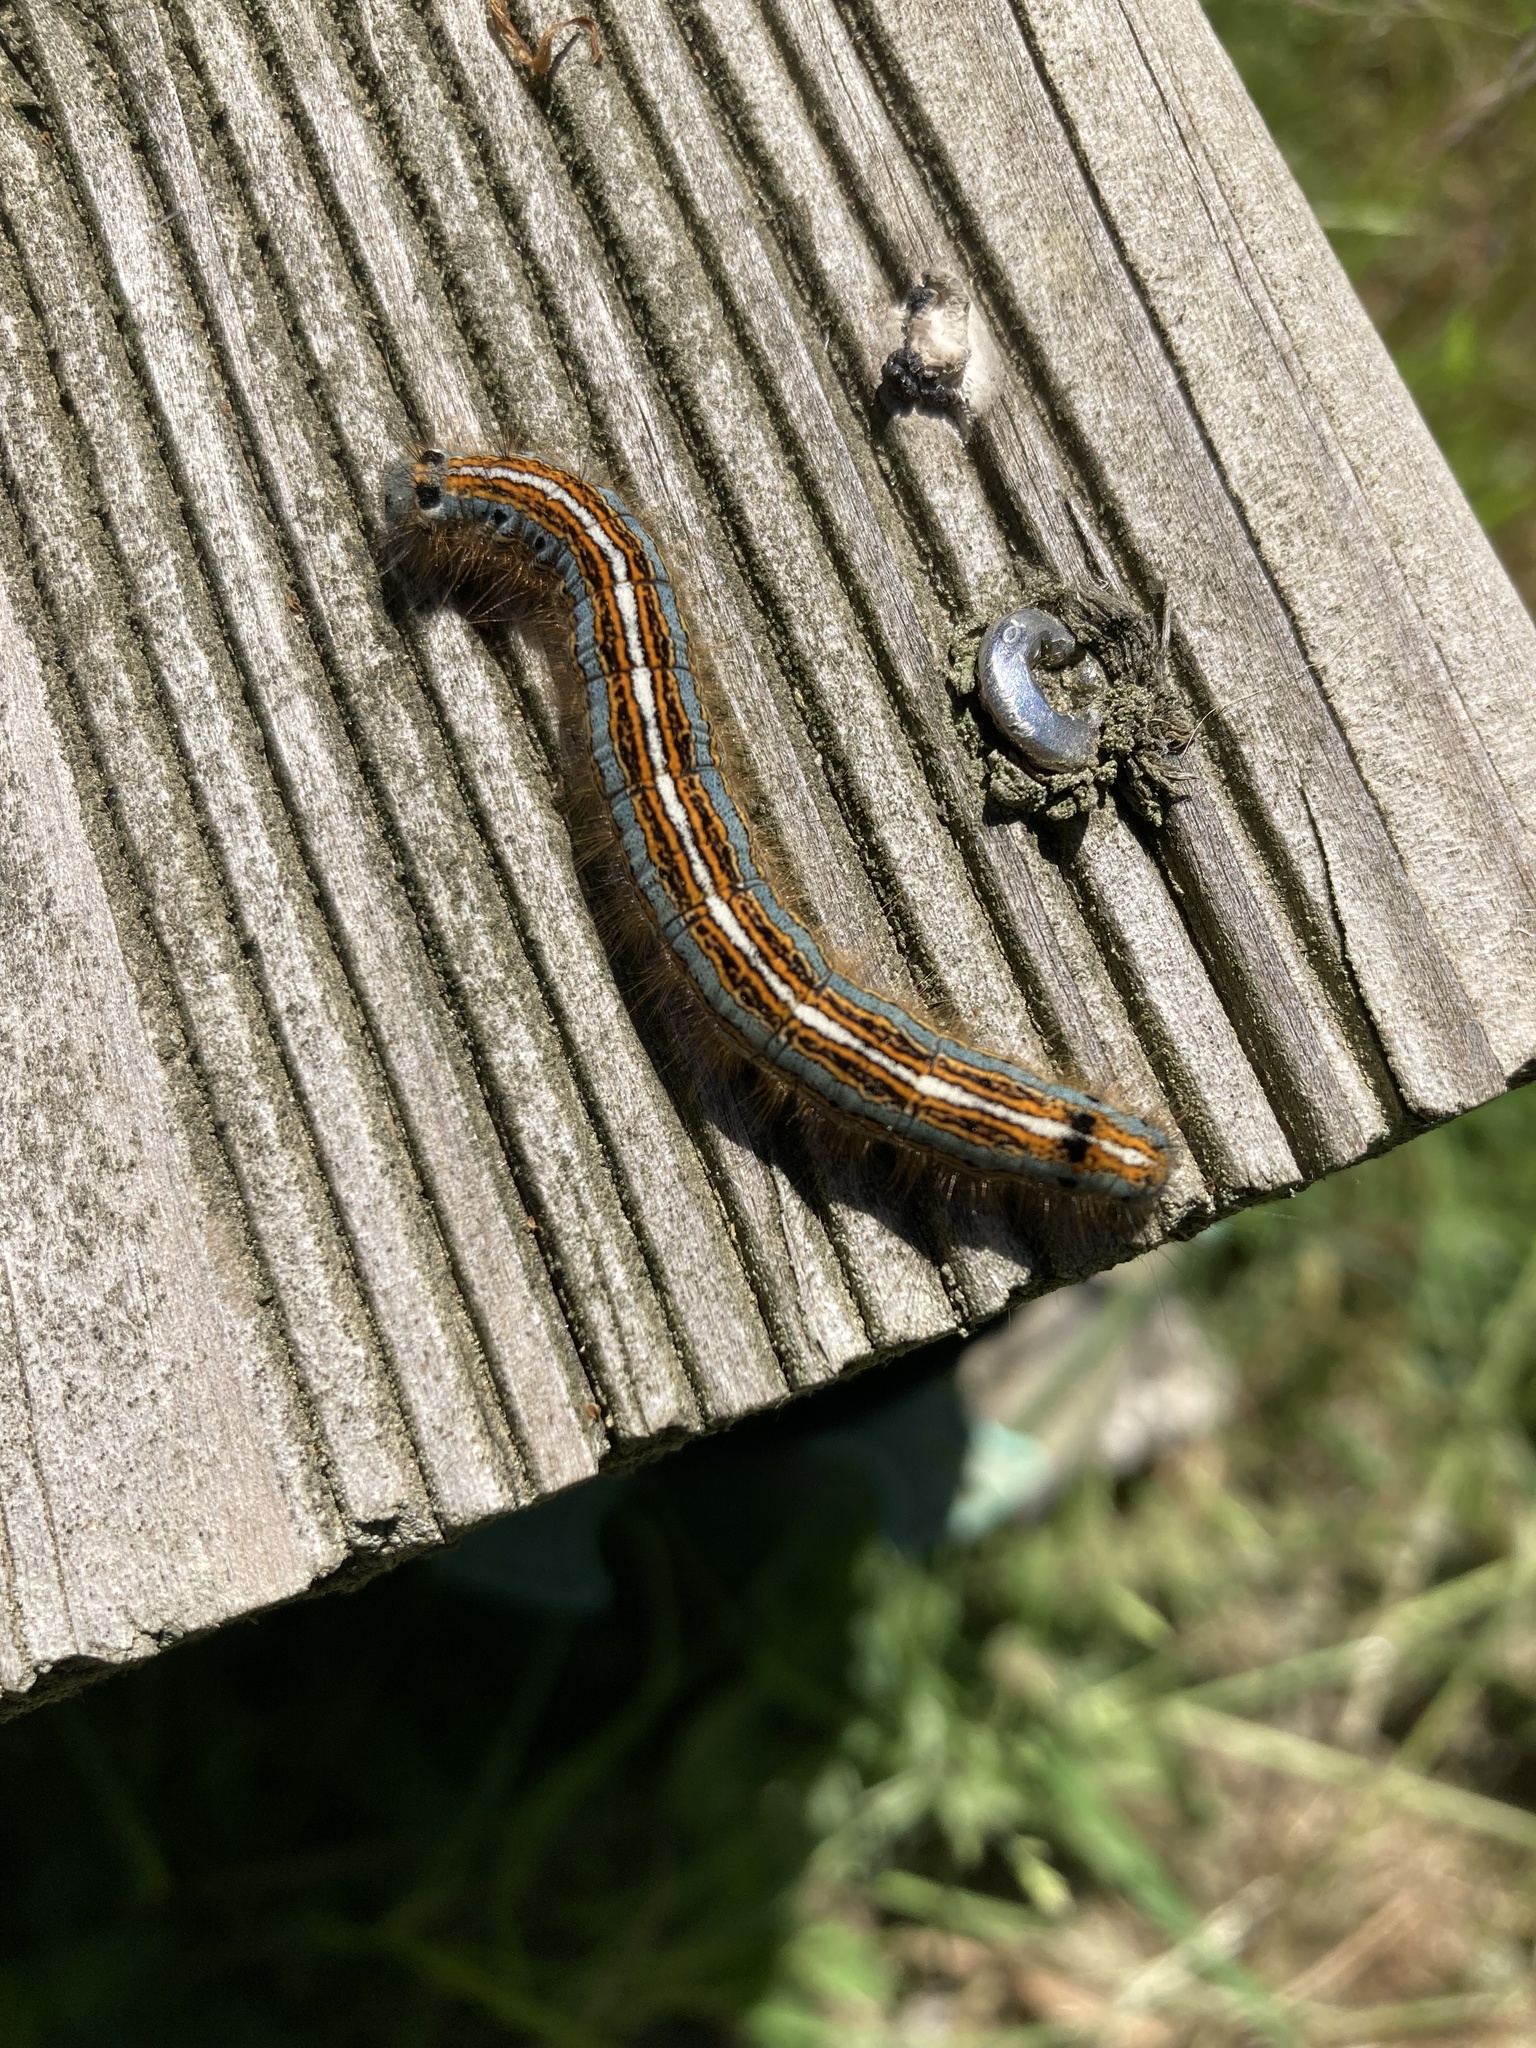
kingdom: Animalia
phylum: Arthropoda
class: Insecta
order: Lepidoptera
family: Lasiocampidae
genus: Malacosoma
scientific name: Malacosoma neustria
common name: The lackey
